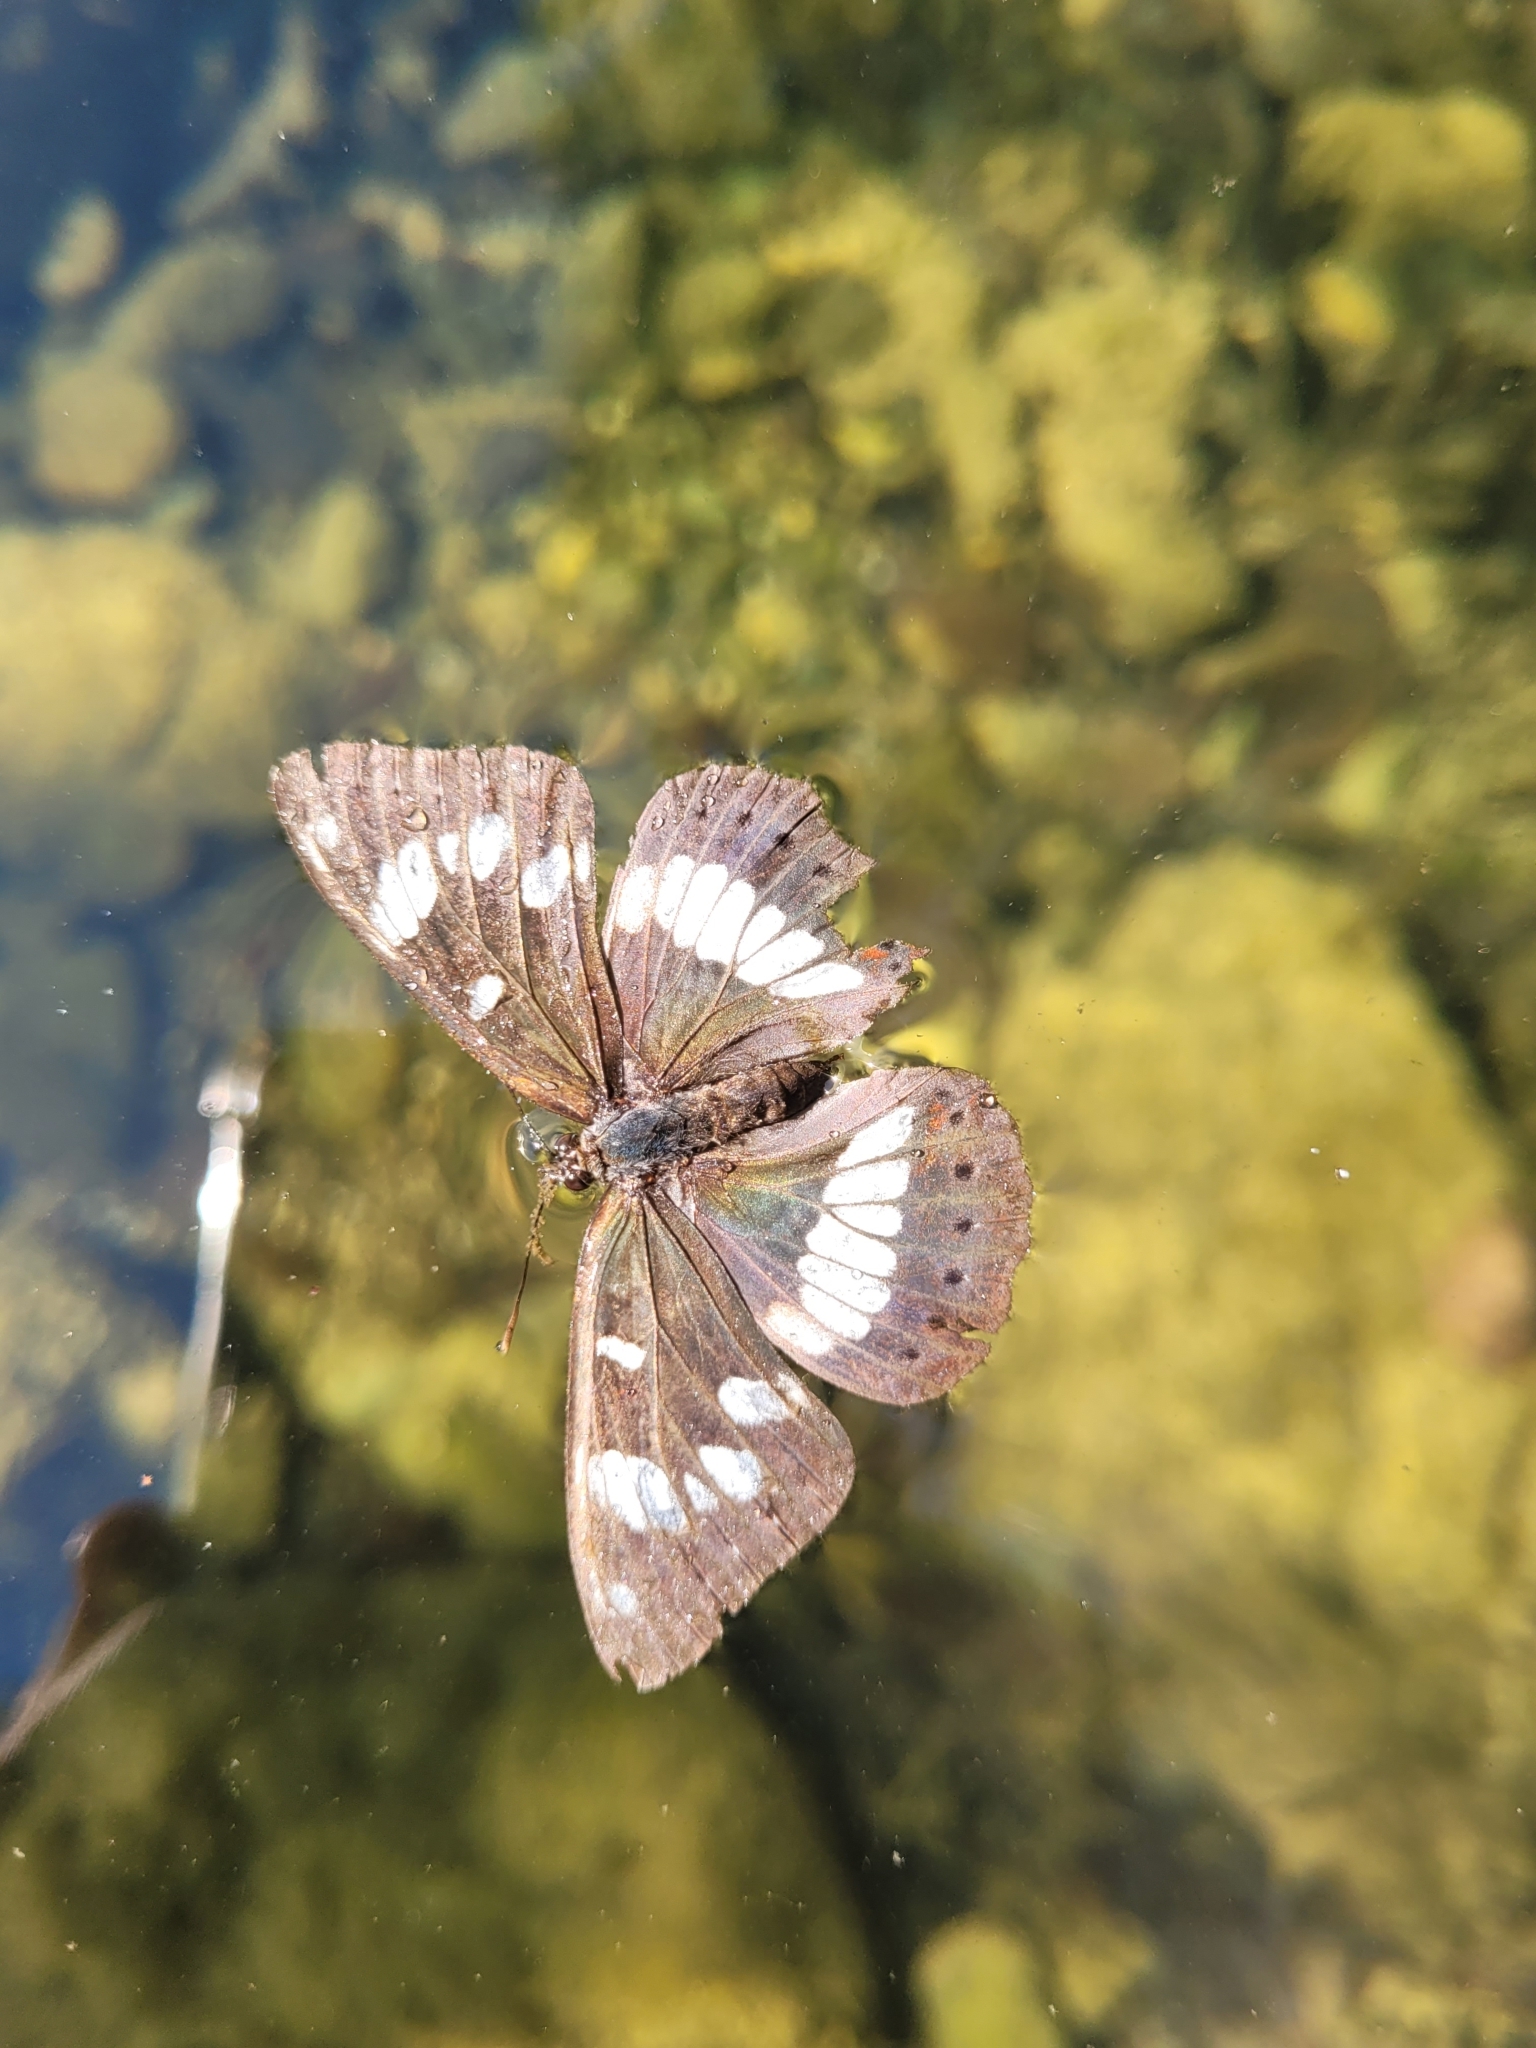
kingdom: Animalia
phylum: Arthropoda
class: Insecta
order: Lepidoptera
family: Nymphalidae
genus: Limenitis
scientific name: Limenitis reducta
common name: Southern white admiral
